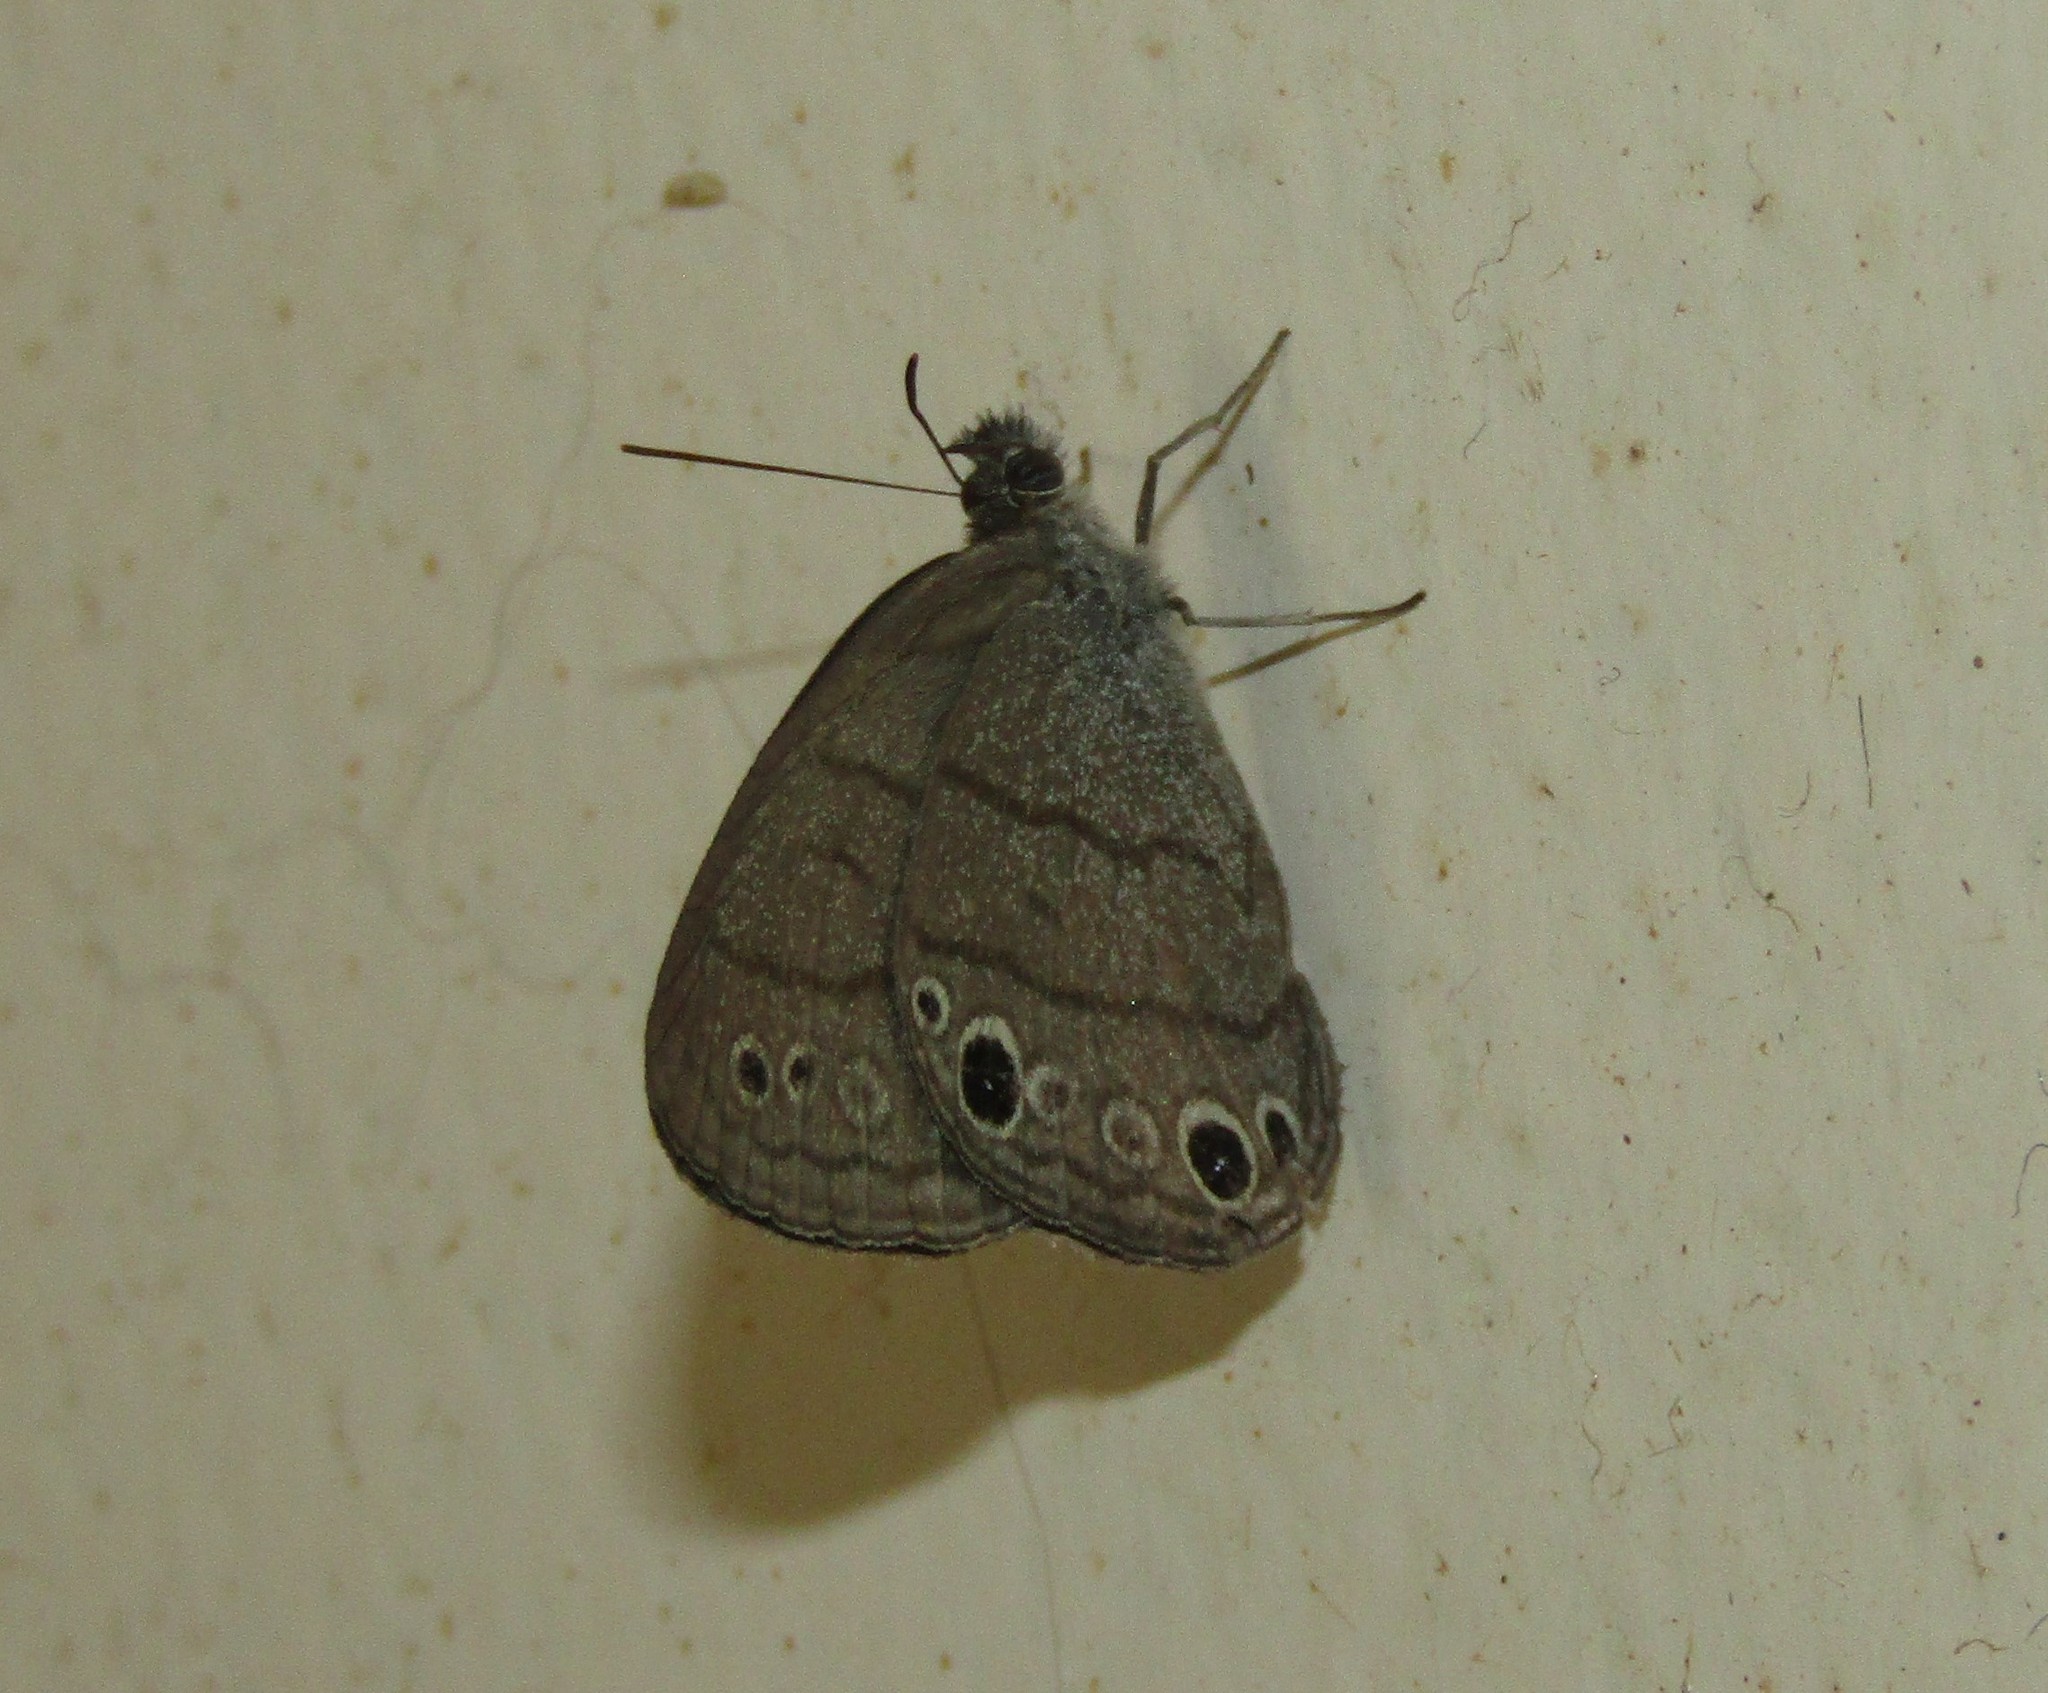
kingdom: Animalia
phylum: Arthropoda
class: Insecta
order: Lepidoptera
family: Nymphalidae
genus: Hermeuptychia
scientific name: Hermeuptychia hermes
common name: Hermes satyr
